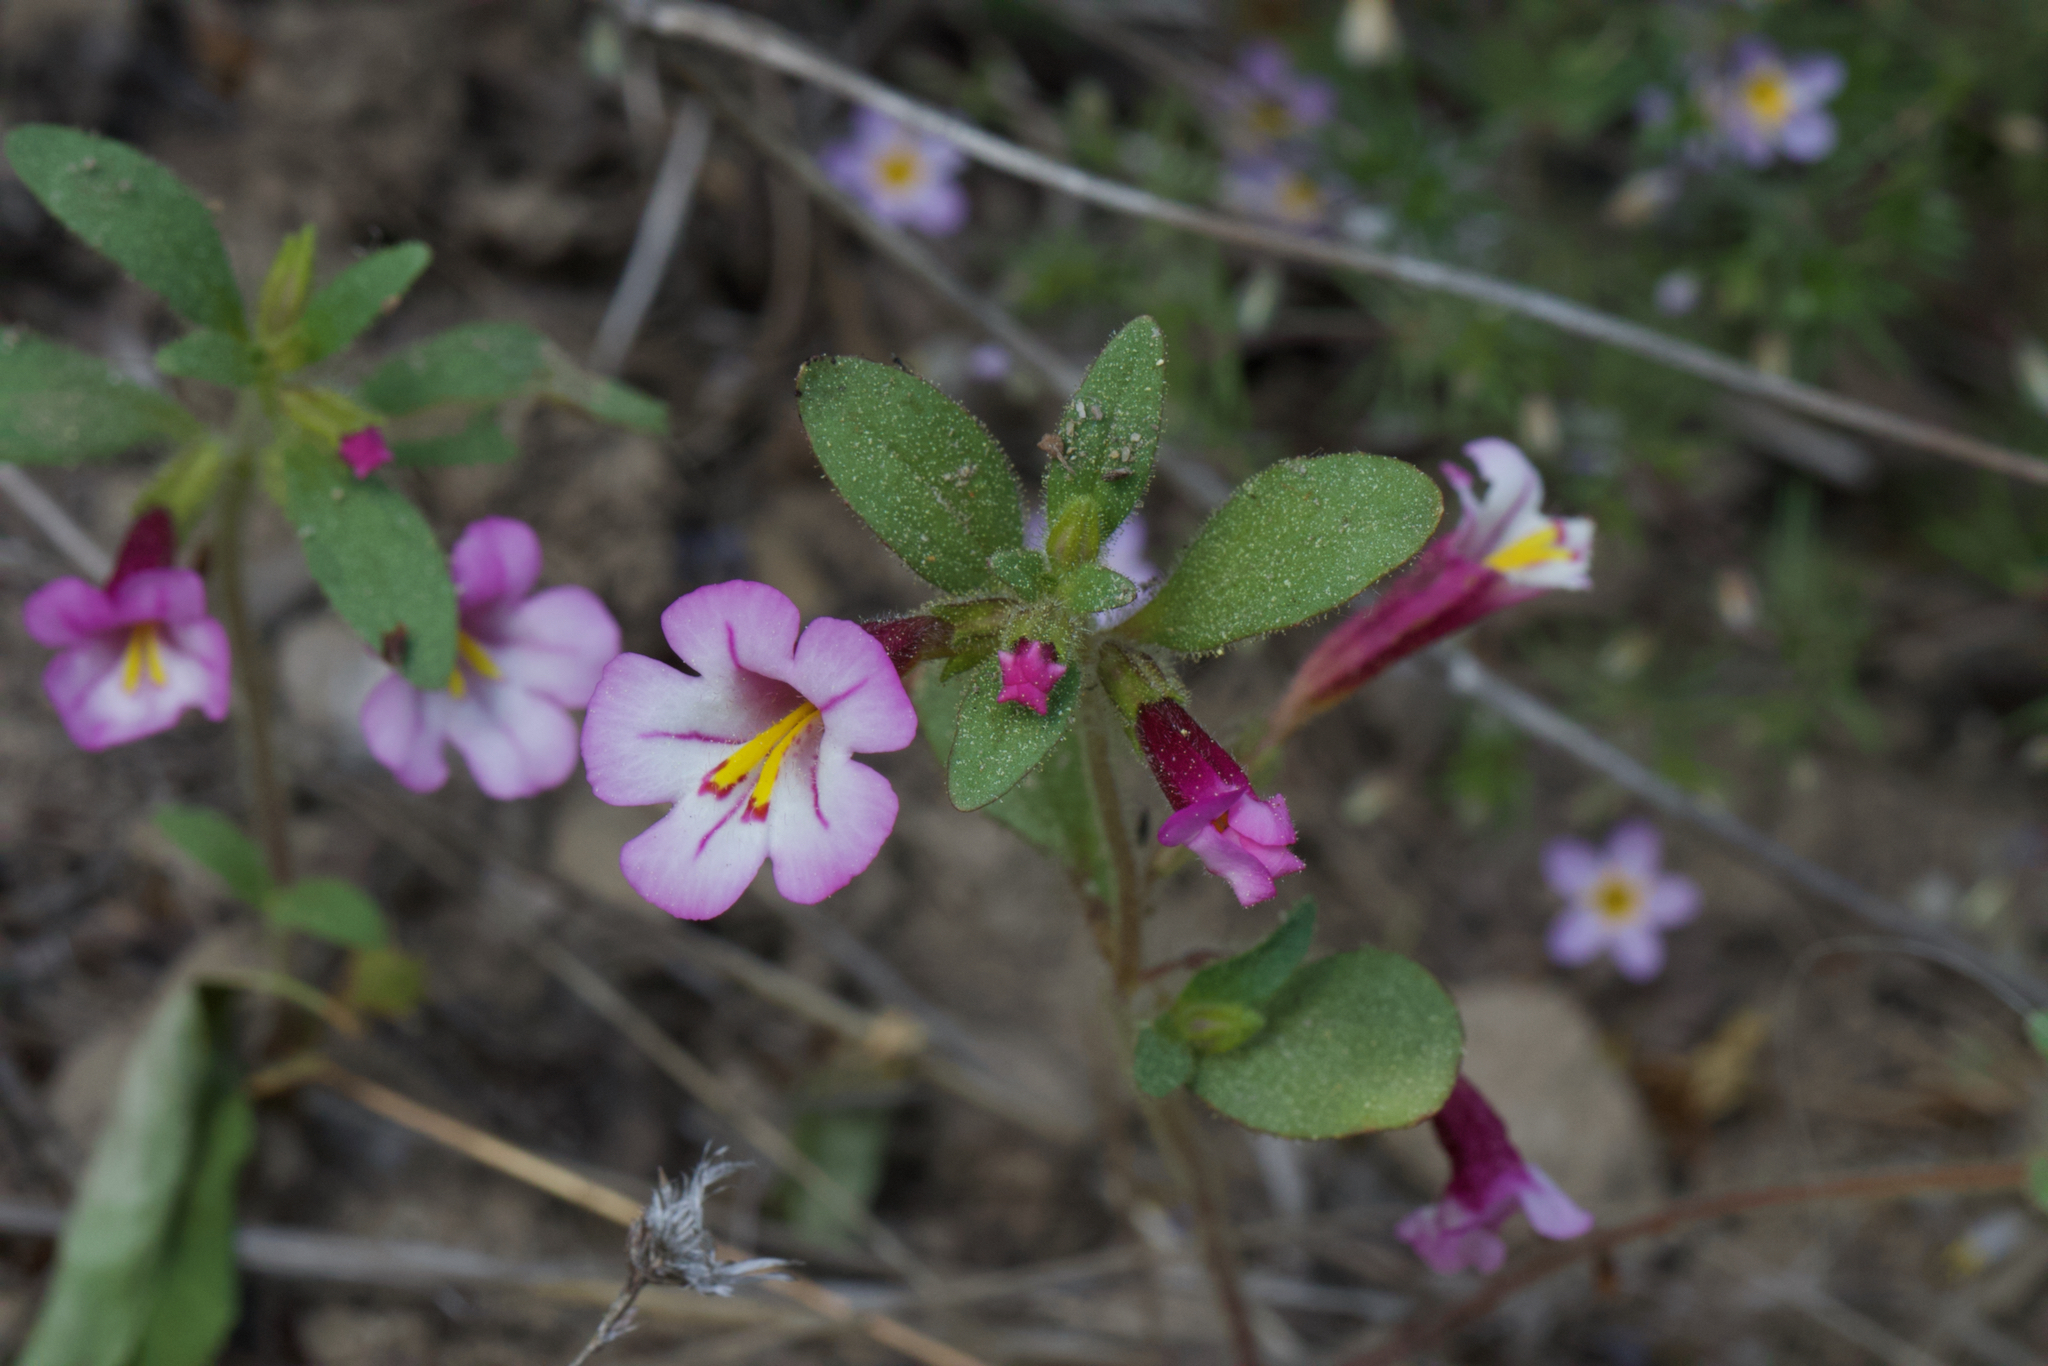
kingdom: Plantae
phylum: Tracheophyta
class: Magnoliopsida
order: Lamiales
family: Phrymaceae
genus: Diplacus
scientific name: Diplacus torreyi
